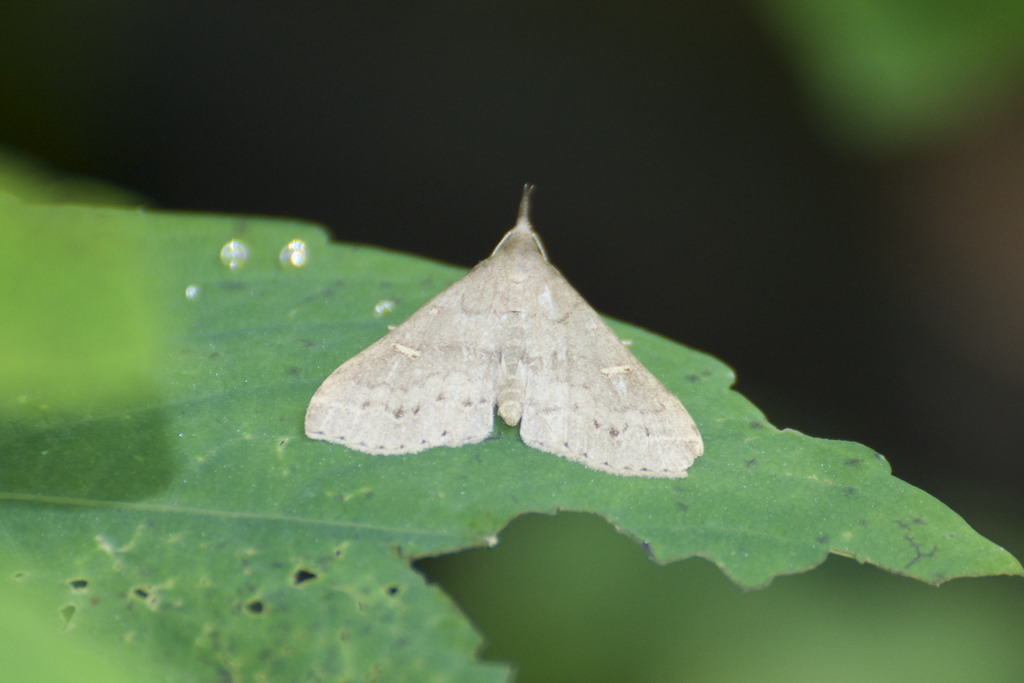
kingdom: Animalia
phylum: Arthropoda
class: Insecta
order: Lepidoptera
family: Erebidae
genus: Renia
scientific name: Renia adspergillus
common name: Speckled renia moth
